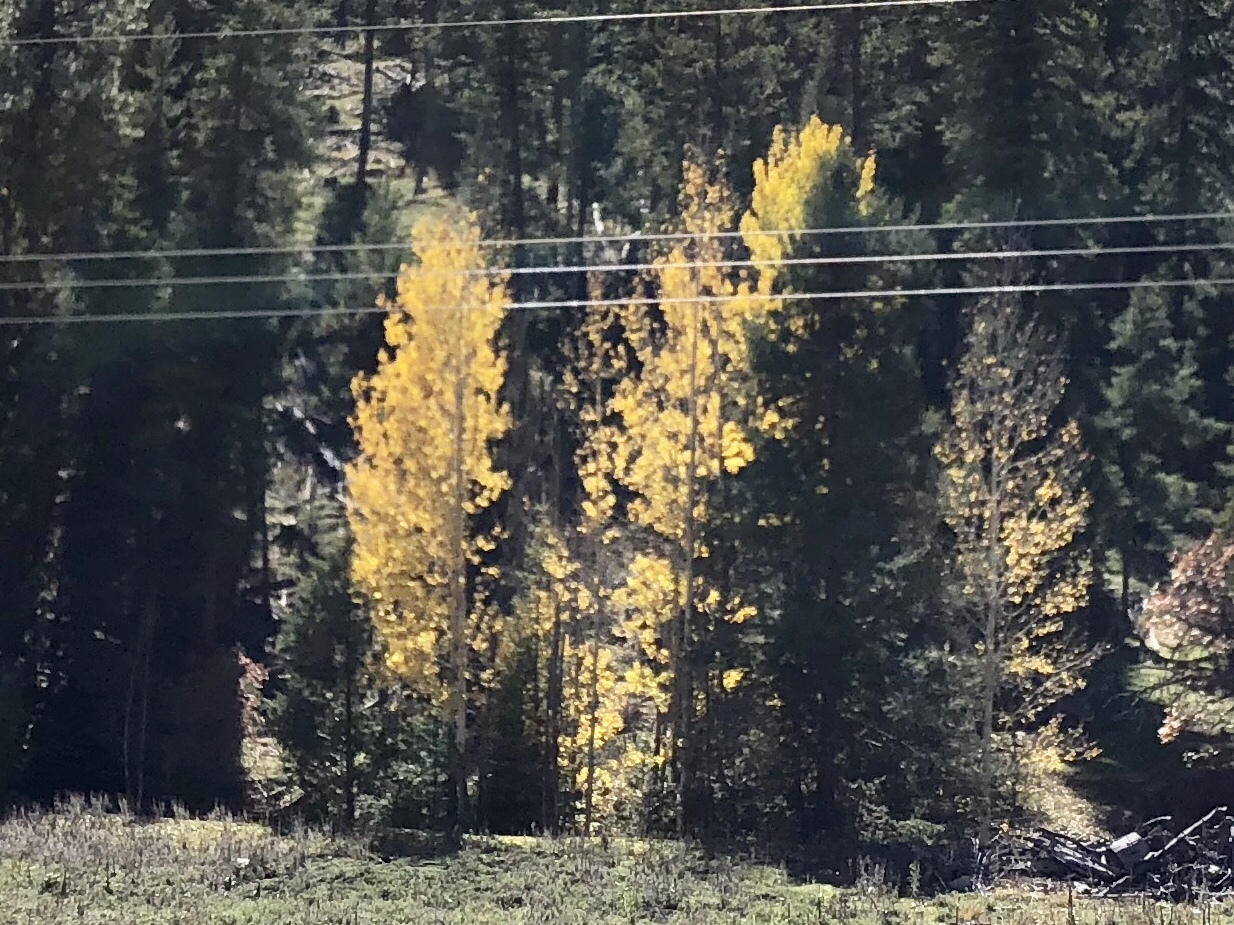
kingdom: Plantae
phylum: Tracheophyta
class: Magnoliopsida
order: Malpighiales
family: Salicaceae
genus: Populus
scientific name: Populus tremuloides
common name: Quaking aspen
